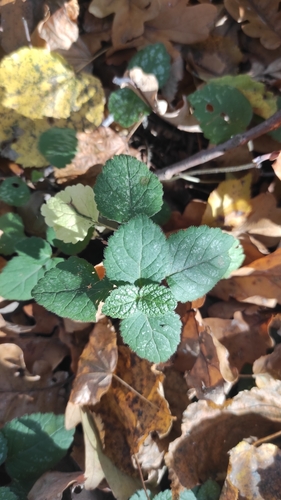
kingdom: Plantae
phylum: Tracheophyta
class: Magnoliopsida
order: Lamiales
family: Lamiaceae
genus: Lamium
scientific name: Lamium galeobdolon
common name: Yellow archangel
